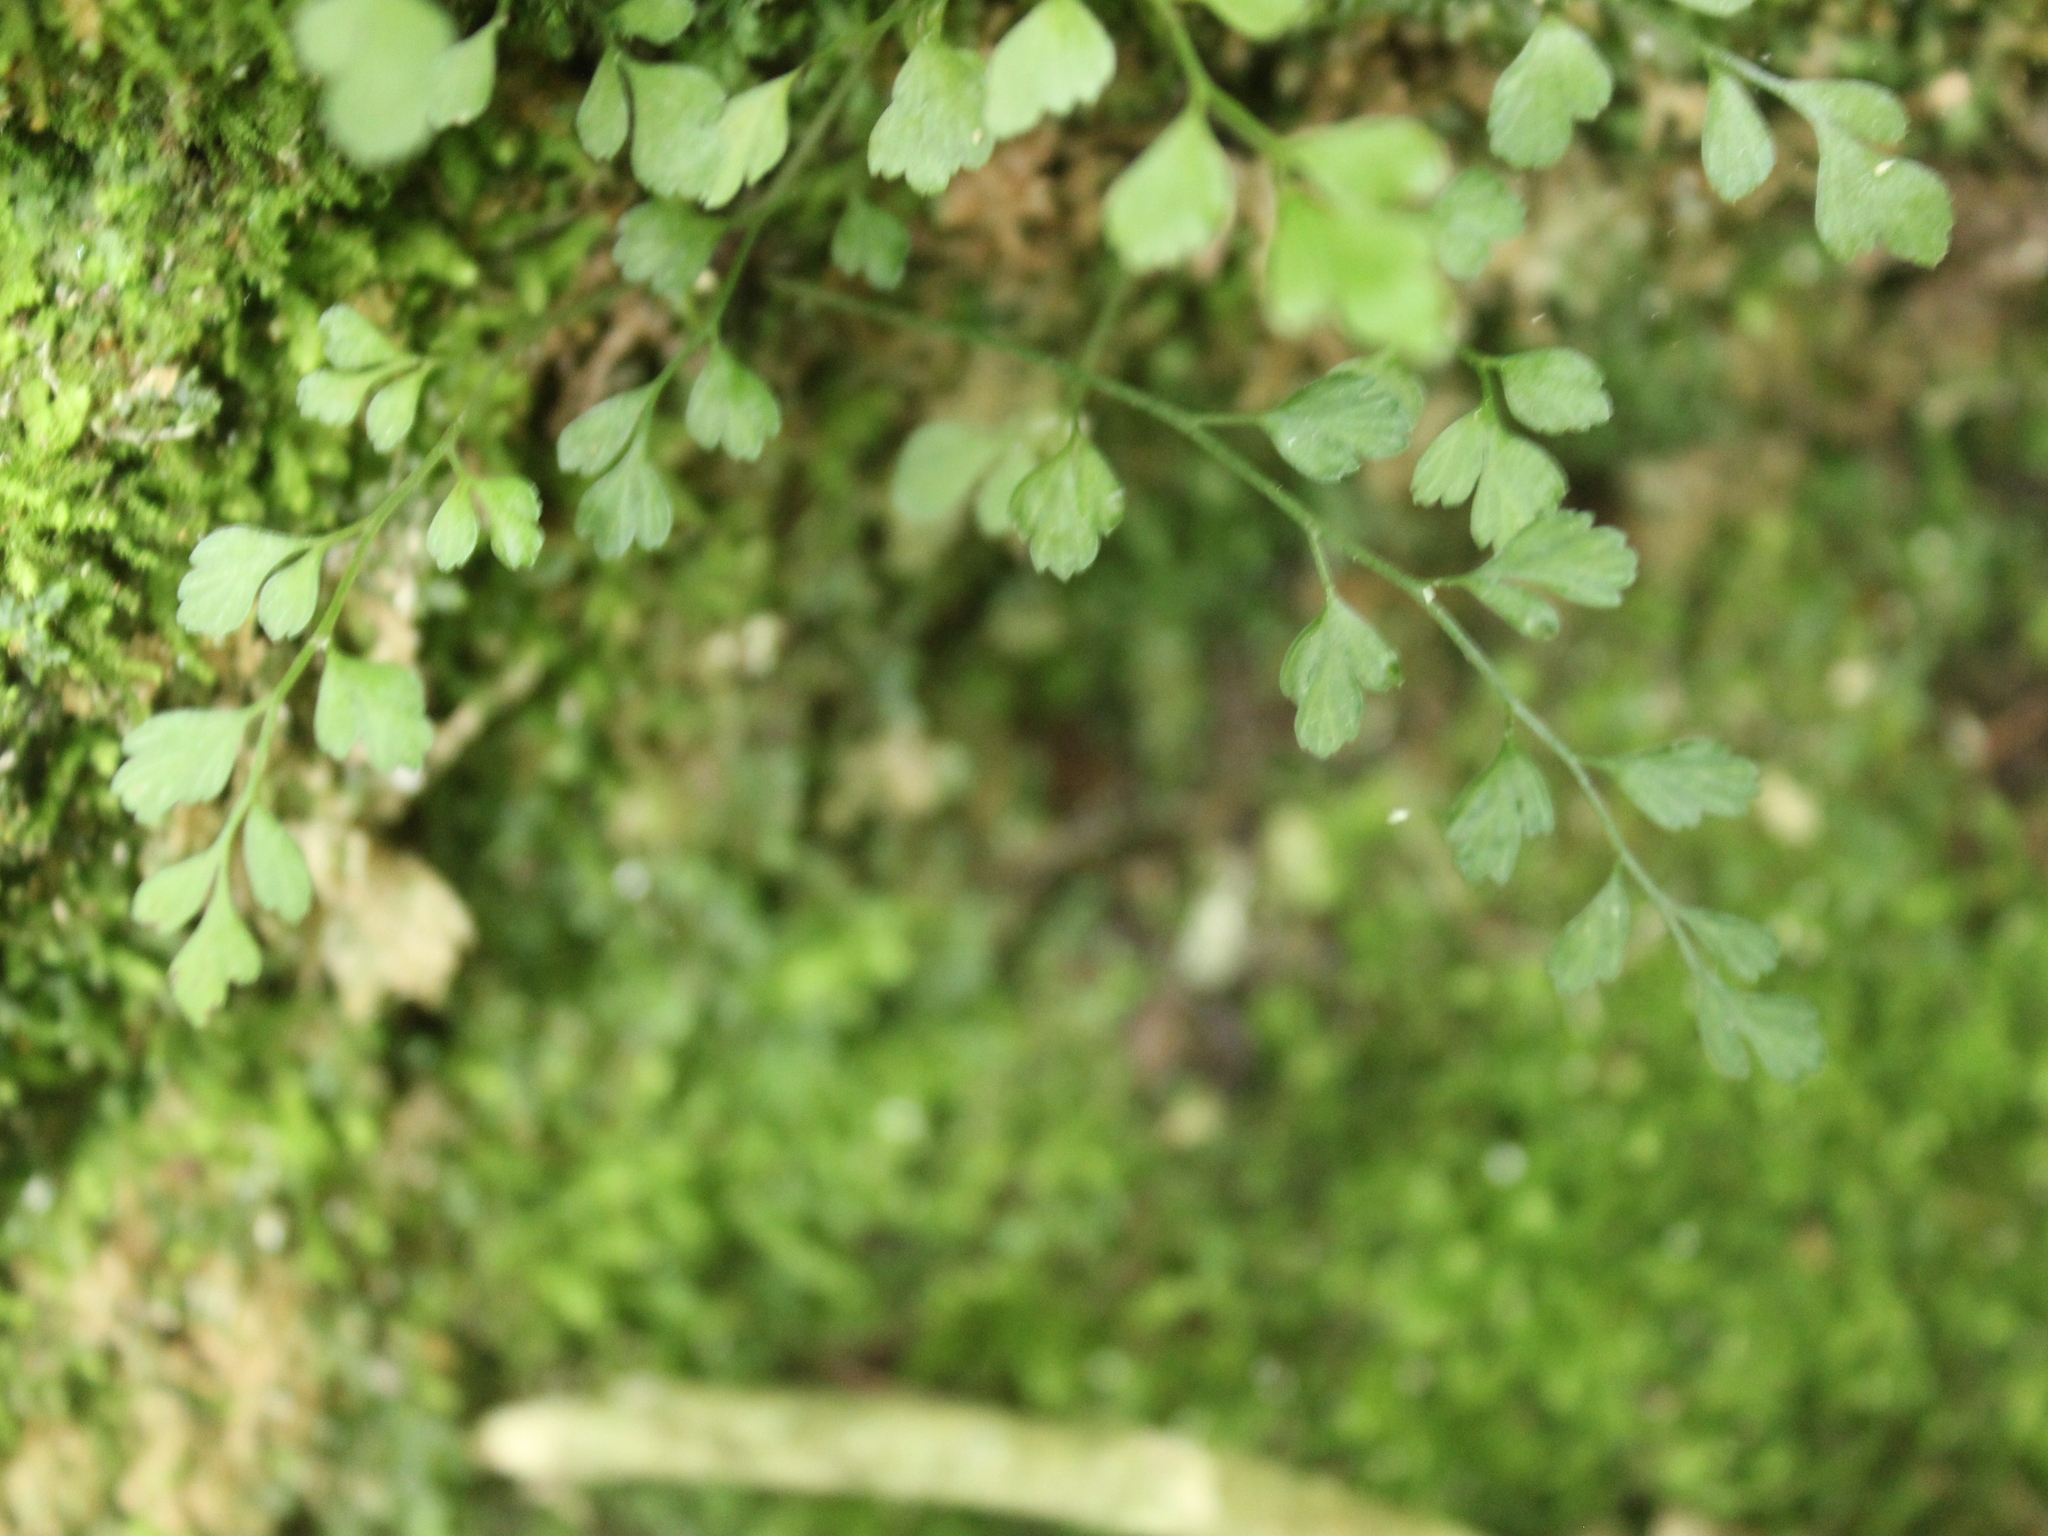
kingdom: Plantae
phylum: Tracheophyta
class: Polypodiopsida
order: Polypodiales
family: Aspleniaceae
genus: Asplenium
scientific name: Asplenium hookerianum
